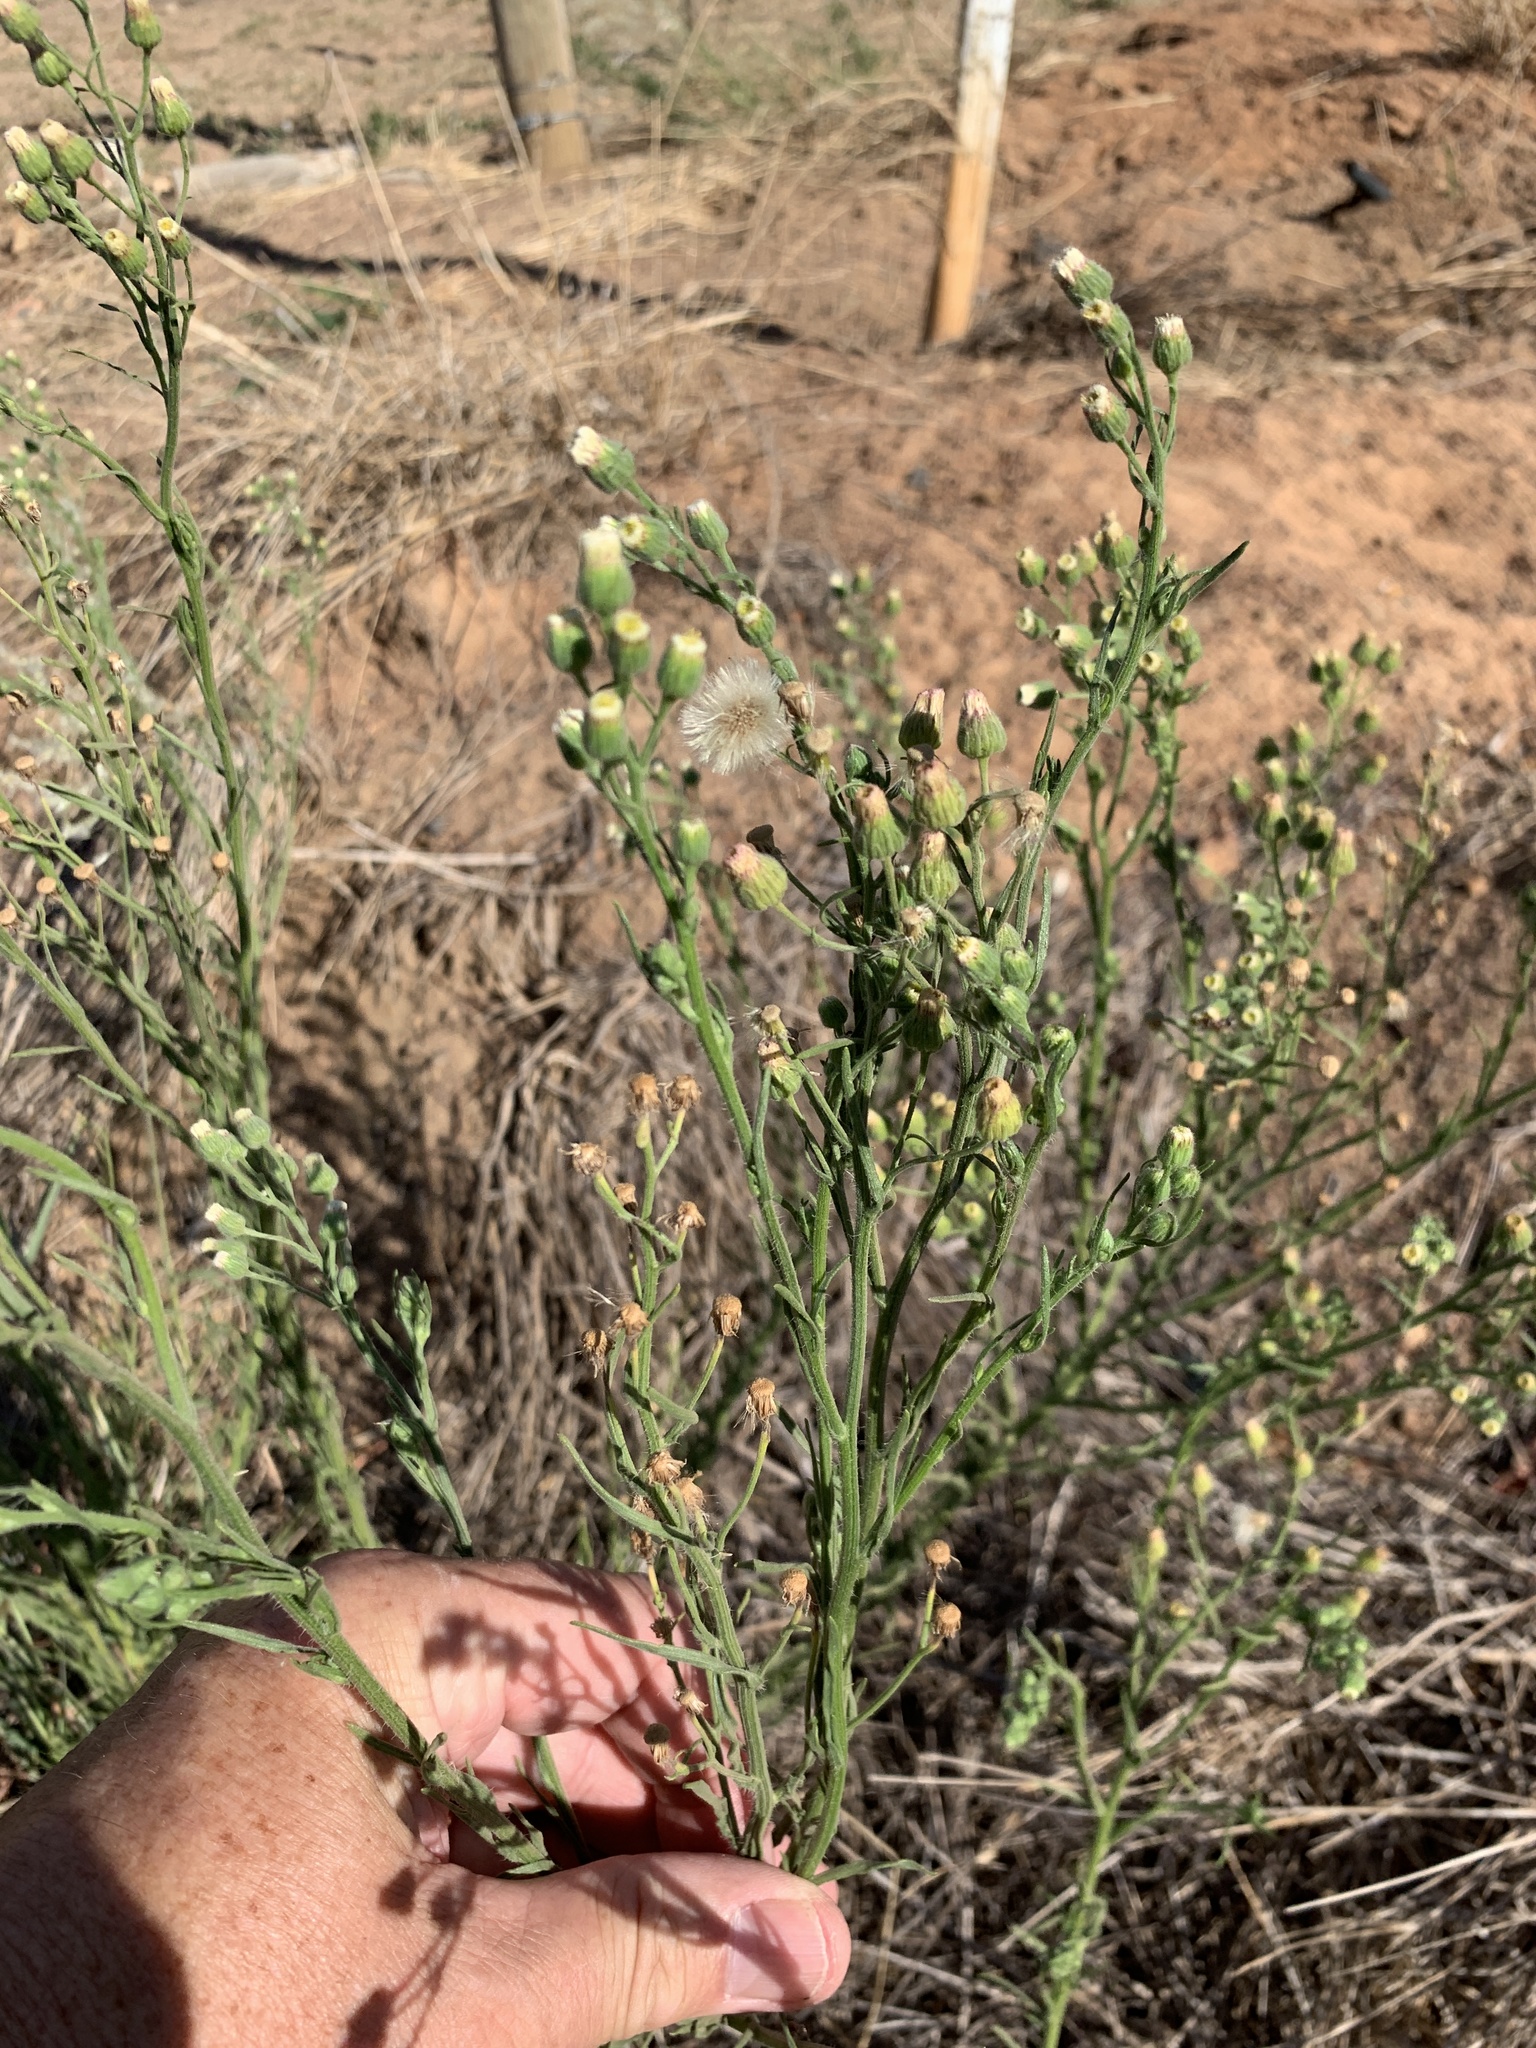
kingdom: Plantae
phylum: Tracheophyta
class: Magnoliopsida
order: Asterales
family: Asteraceae
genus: Erigeron
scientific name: Erigeron bonariensis
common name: Argentine fleabane
